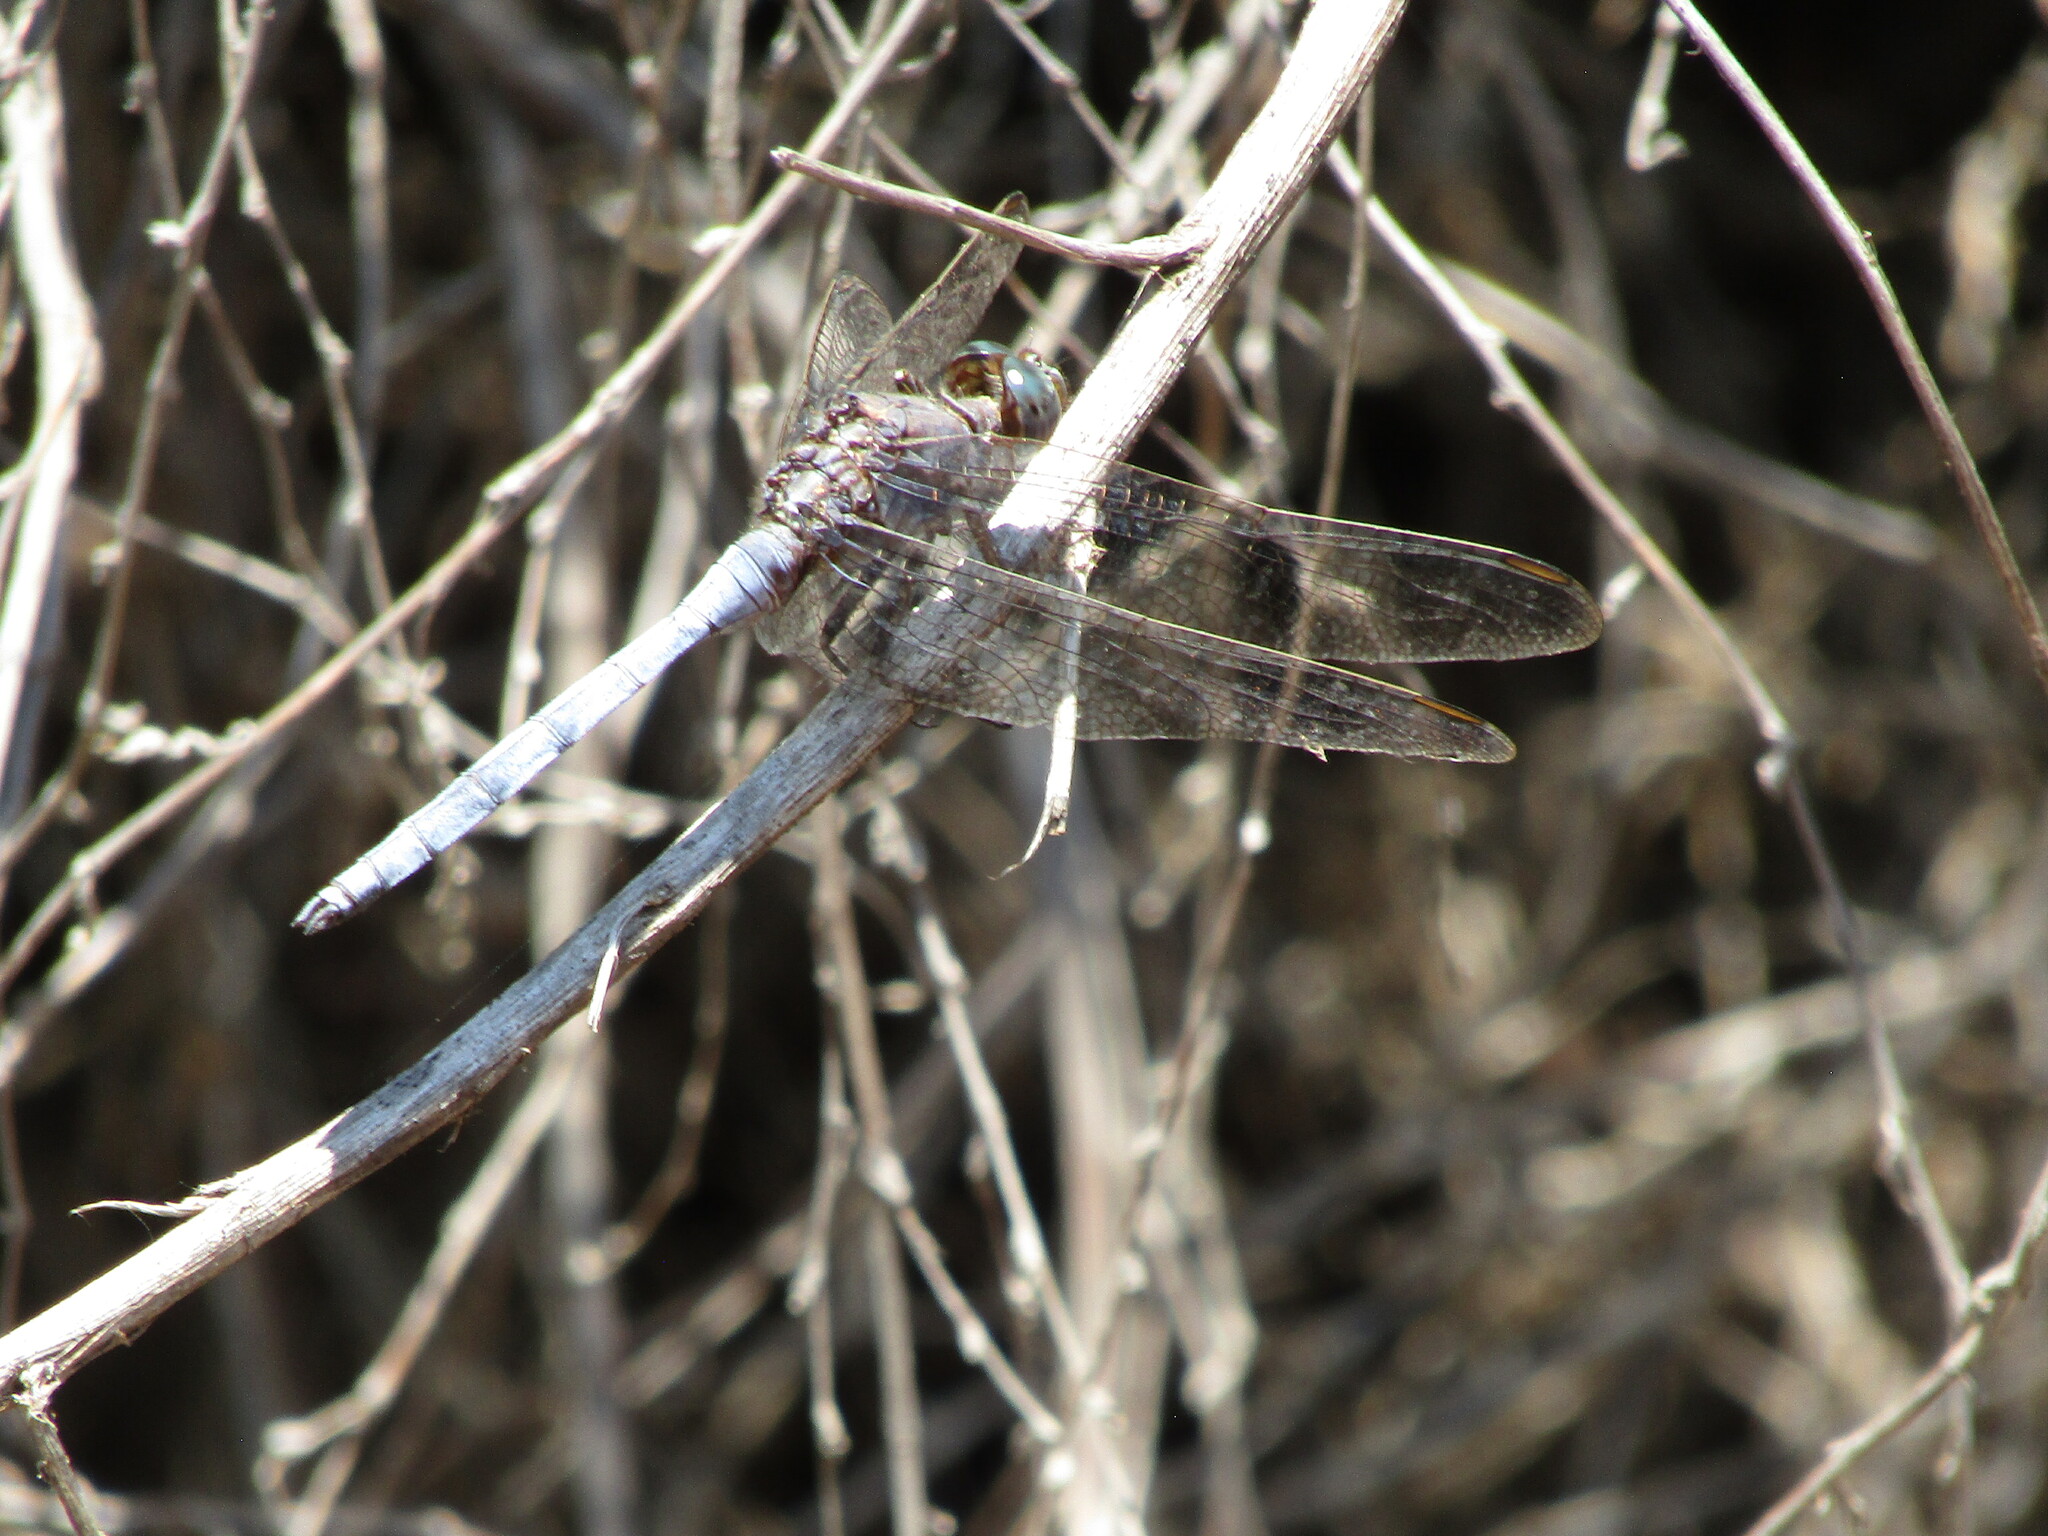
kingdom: Animalia
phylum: Arthropoda
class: Insecta
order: Odonata
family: Libellulidae
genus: Orthetrum
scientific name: Orthetrum chrysostigma
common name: Epaulet skimmer
